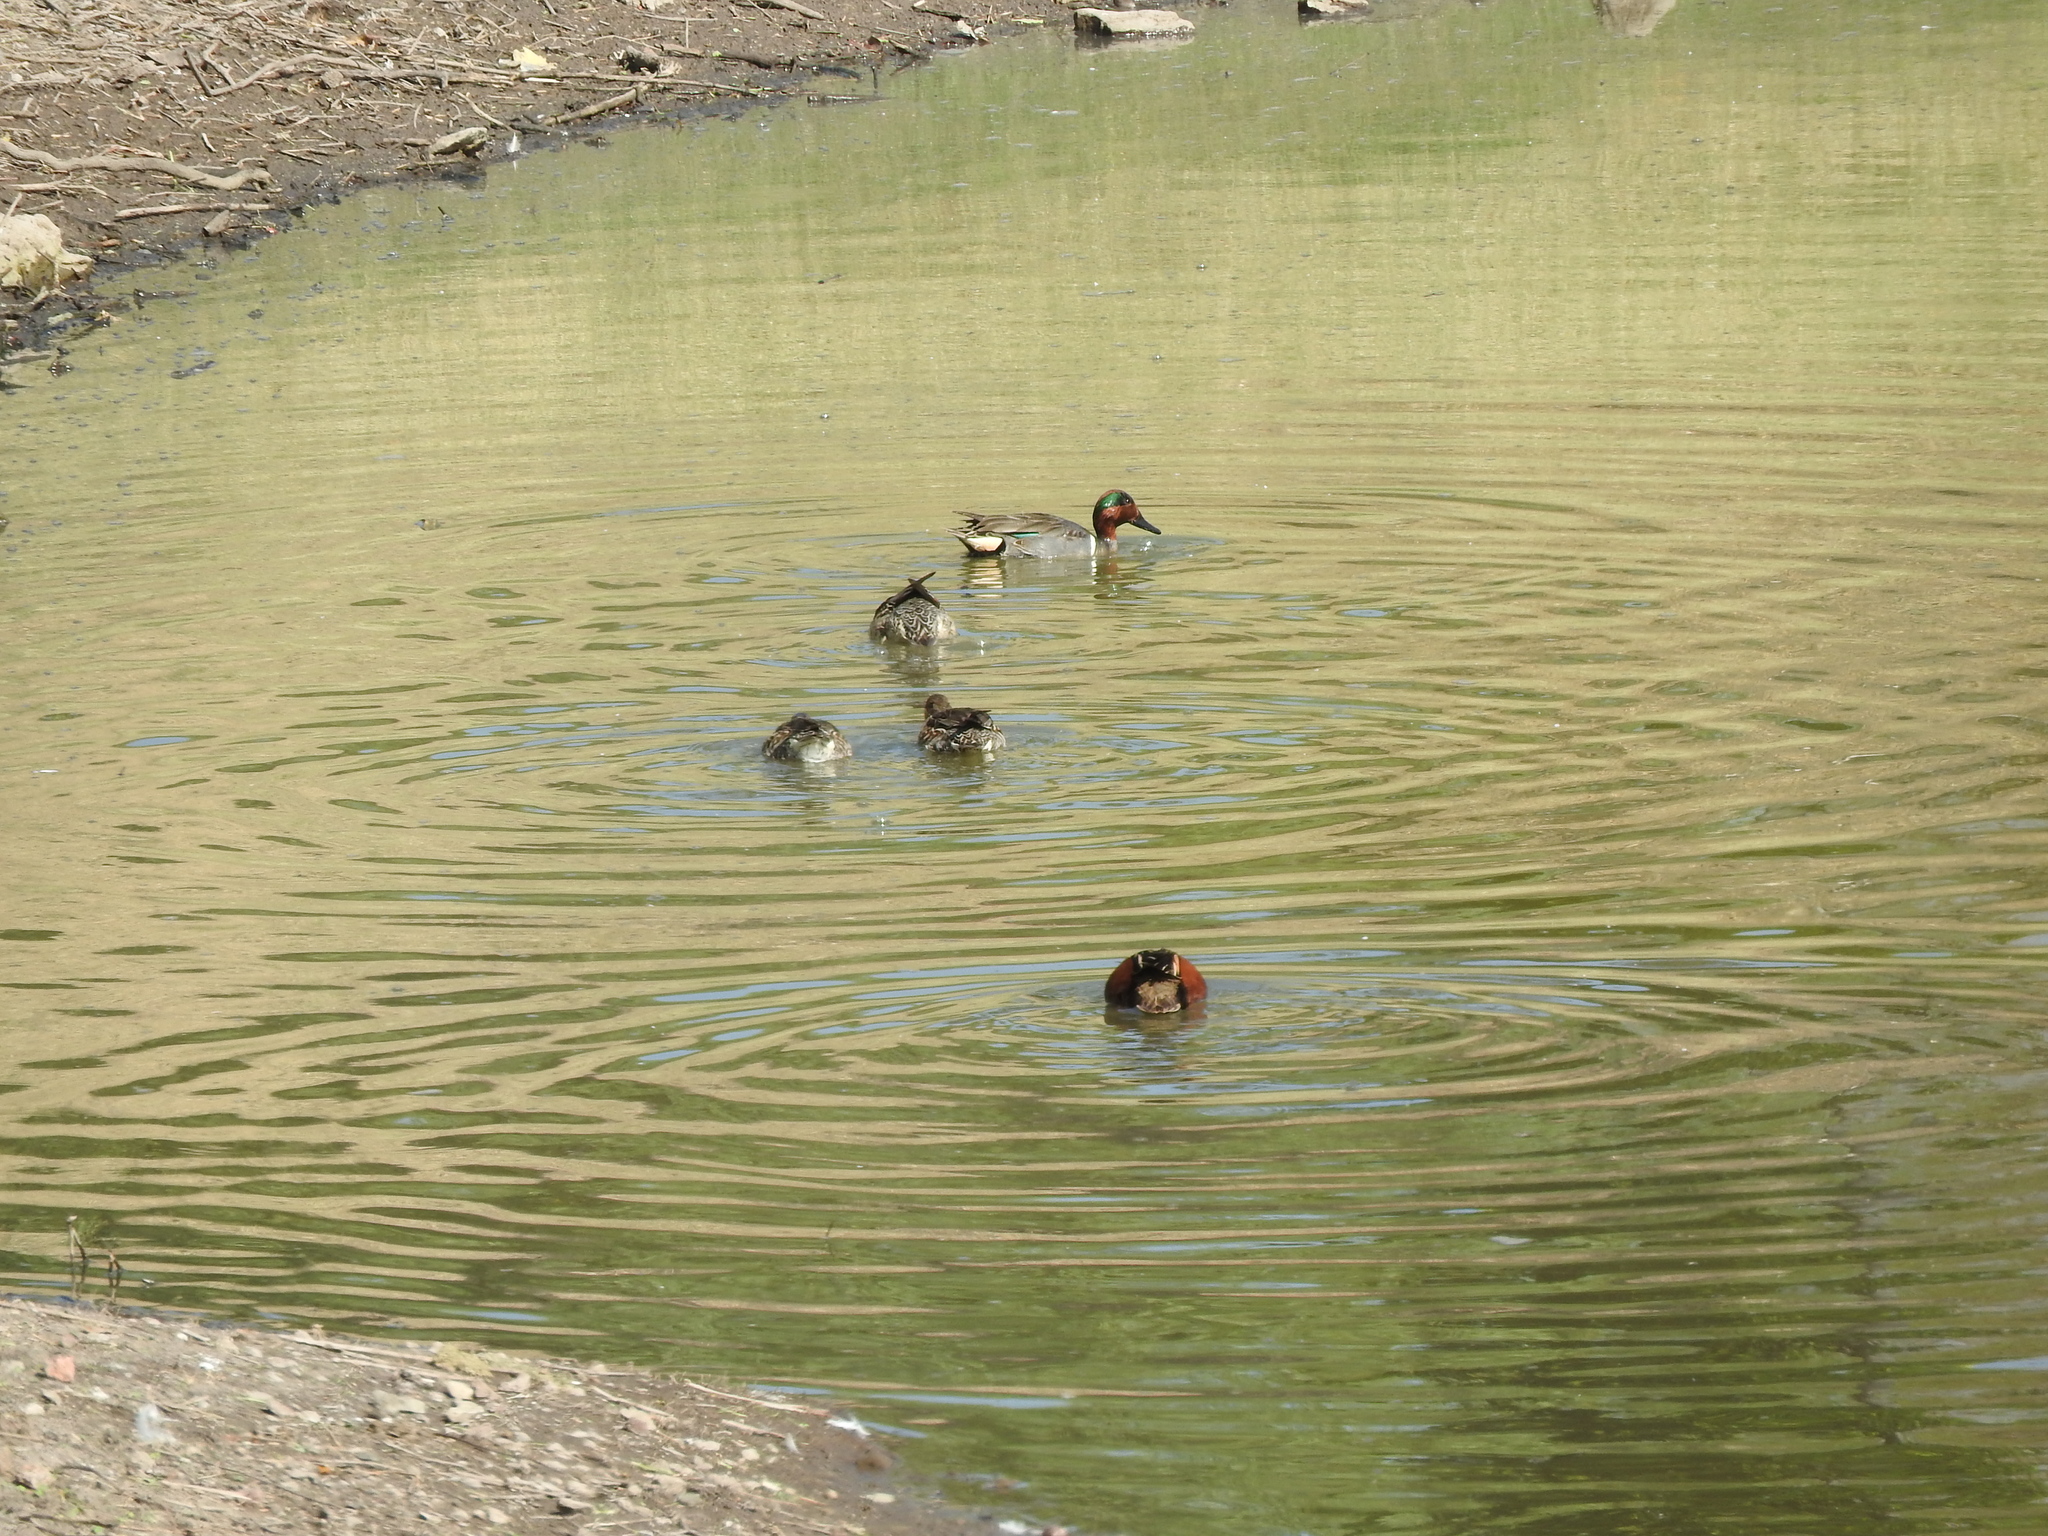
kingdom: Animalia
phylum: Chordata
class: Aves
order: Anseriformes
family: Anatidae
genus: Anas
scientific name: Anas crecca
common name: Eurasian teal
